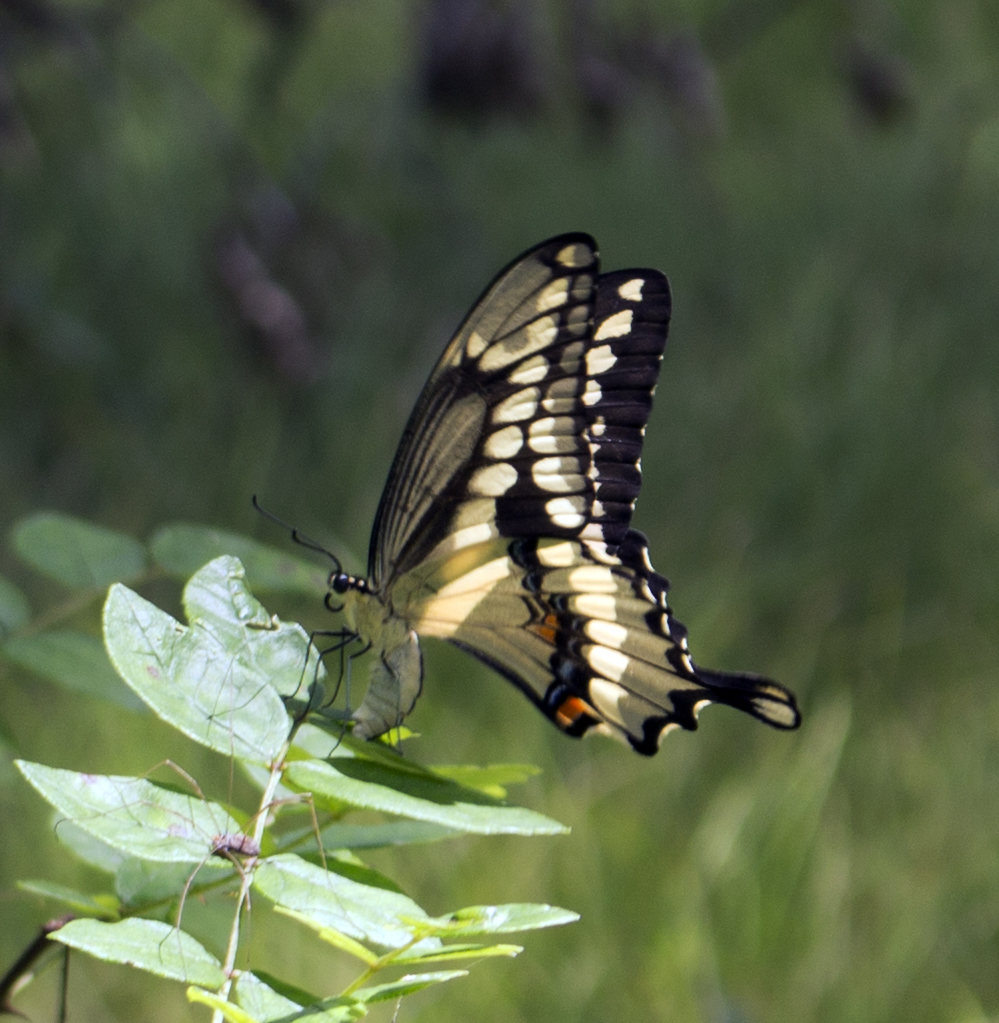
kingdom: Animalia
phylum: Arthropoda
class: Insecta
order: Lepidoptera
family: Papilionidae
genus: Papilio
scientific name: Papilio cresphontes
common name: Giant swallowtail
